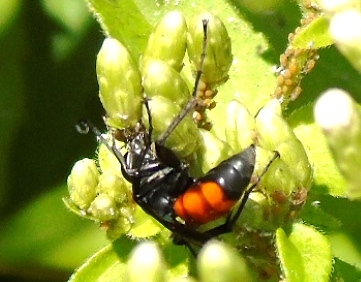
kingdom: Animalia
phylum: Arthropoda
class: Insecta
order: Hymenoptera
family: Pompilidae
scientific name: Pompilidae
